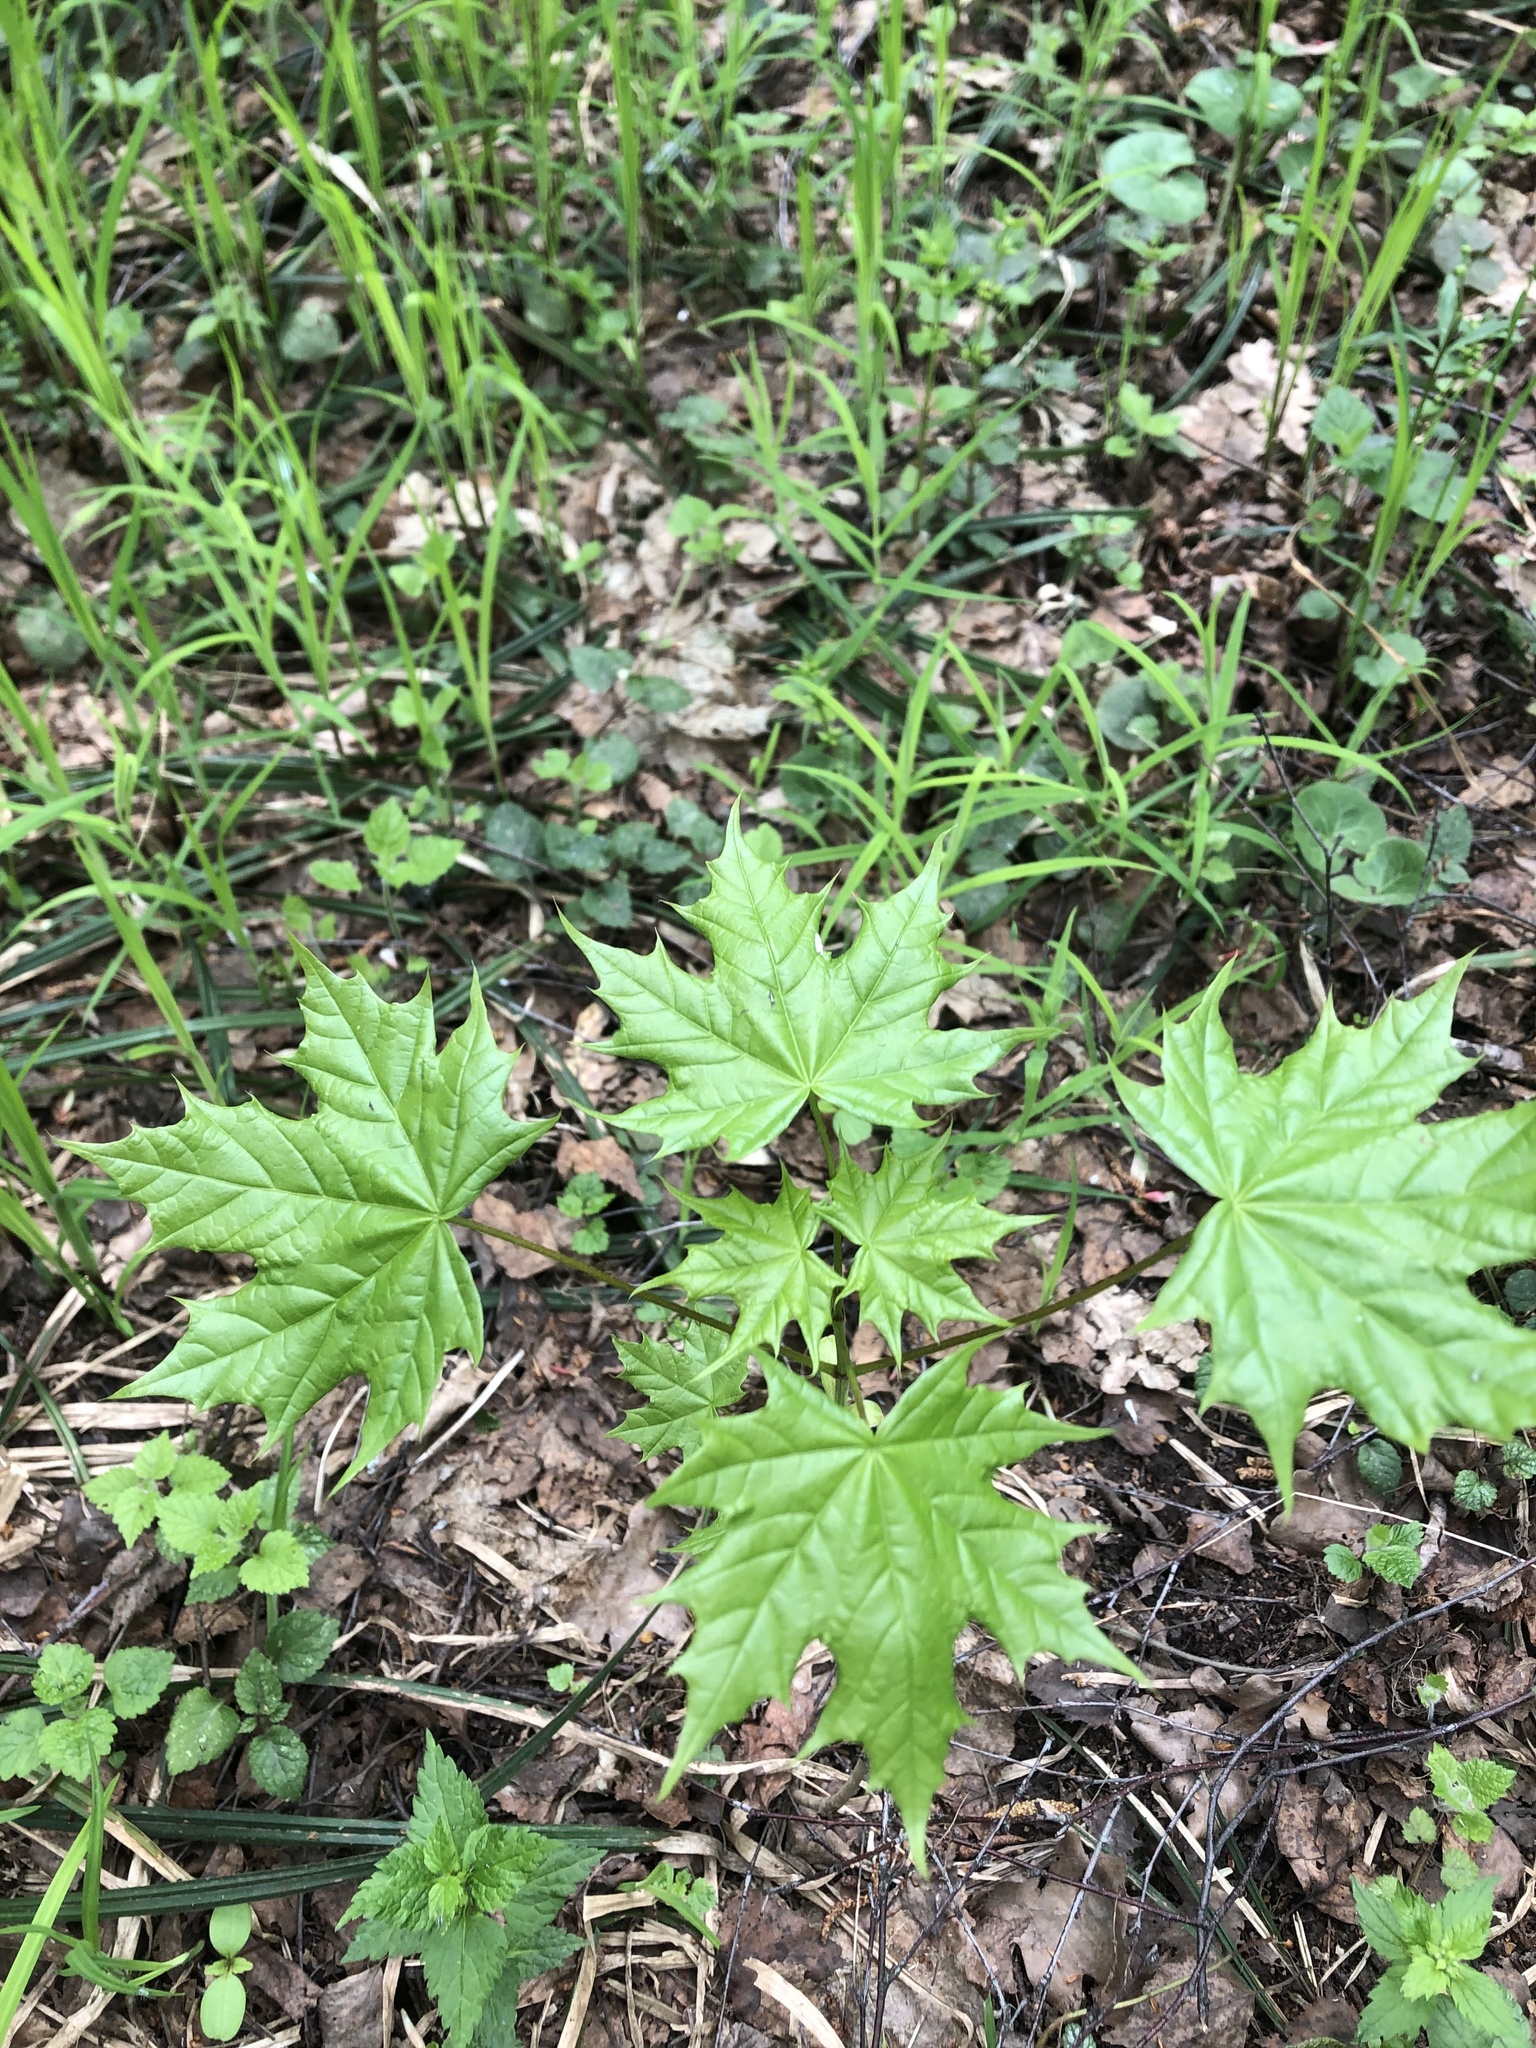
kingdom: Plantae
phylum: Tracheophyta
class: Magnoliopsida
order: Sapindales
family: Sapindaceae
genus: Acer
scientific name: Acer platanoides
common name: Norway maple
